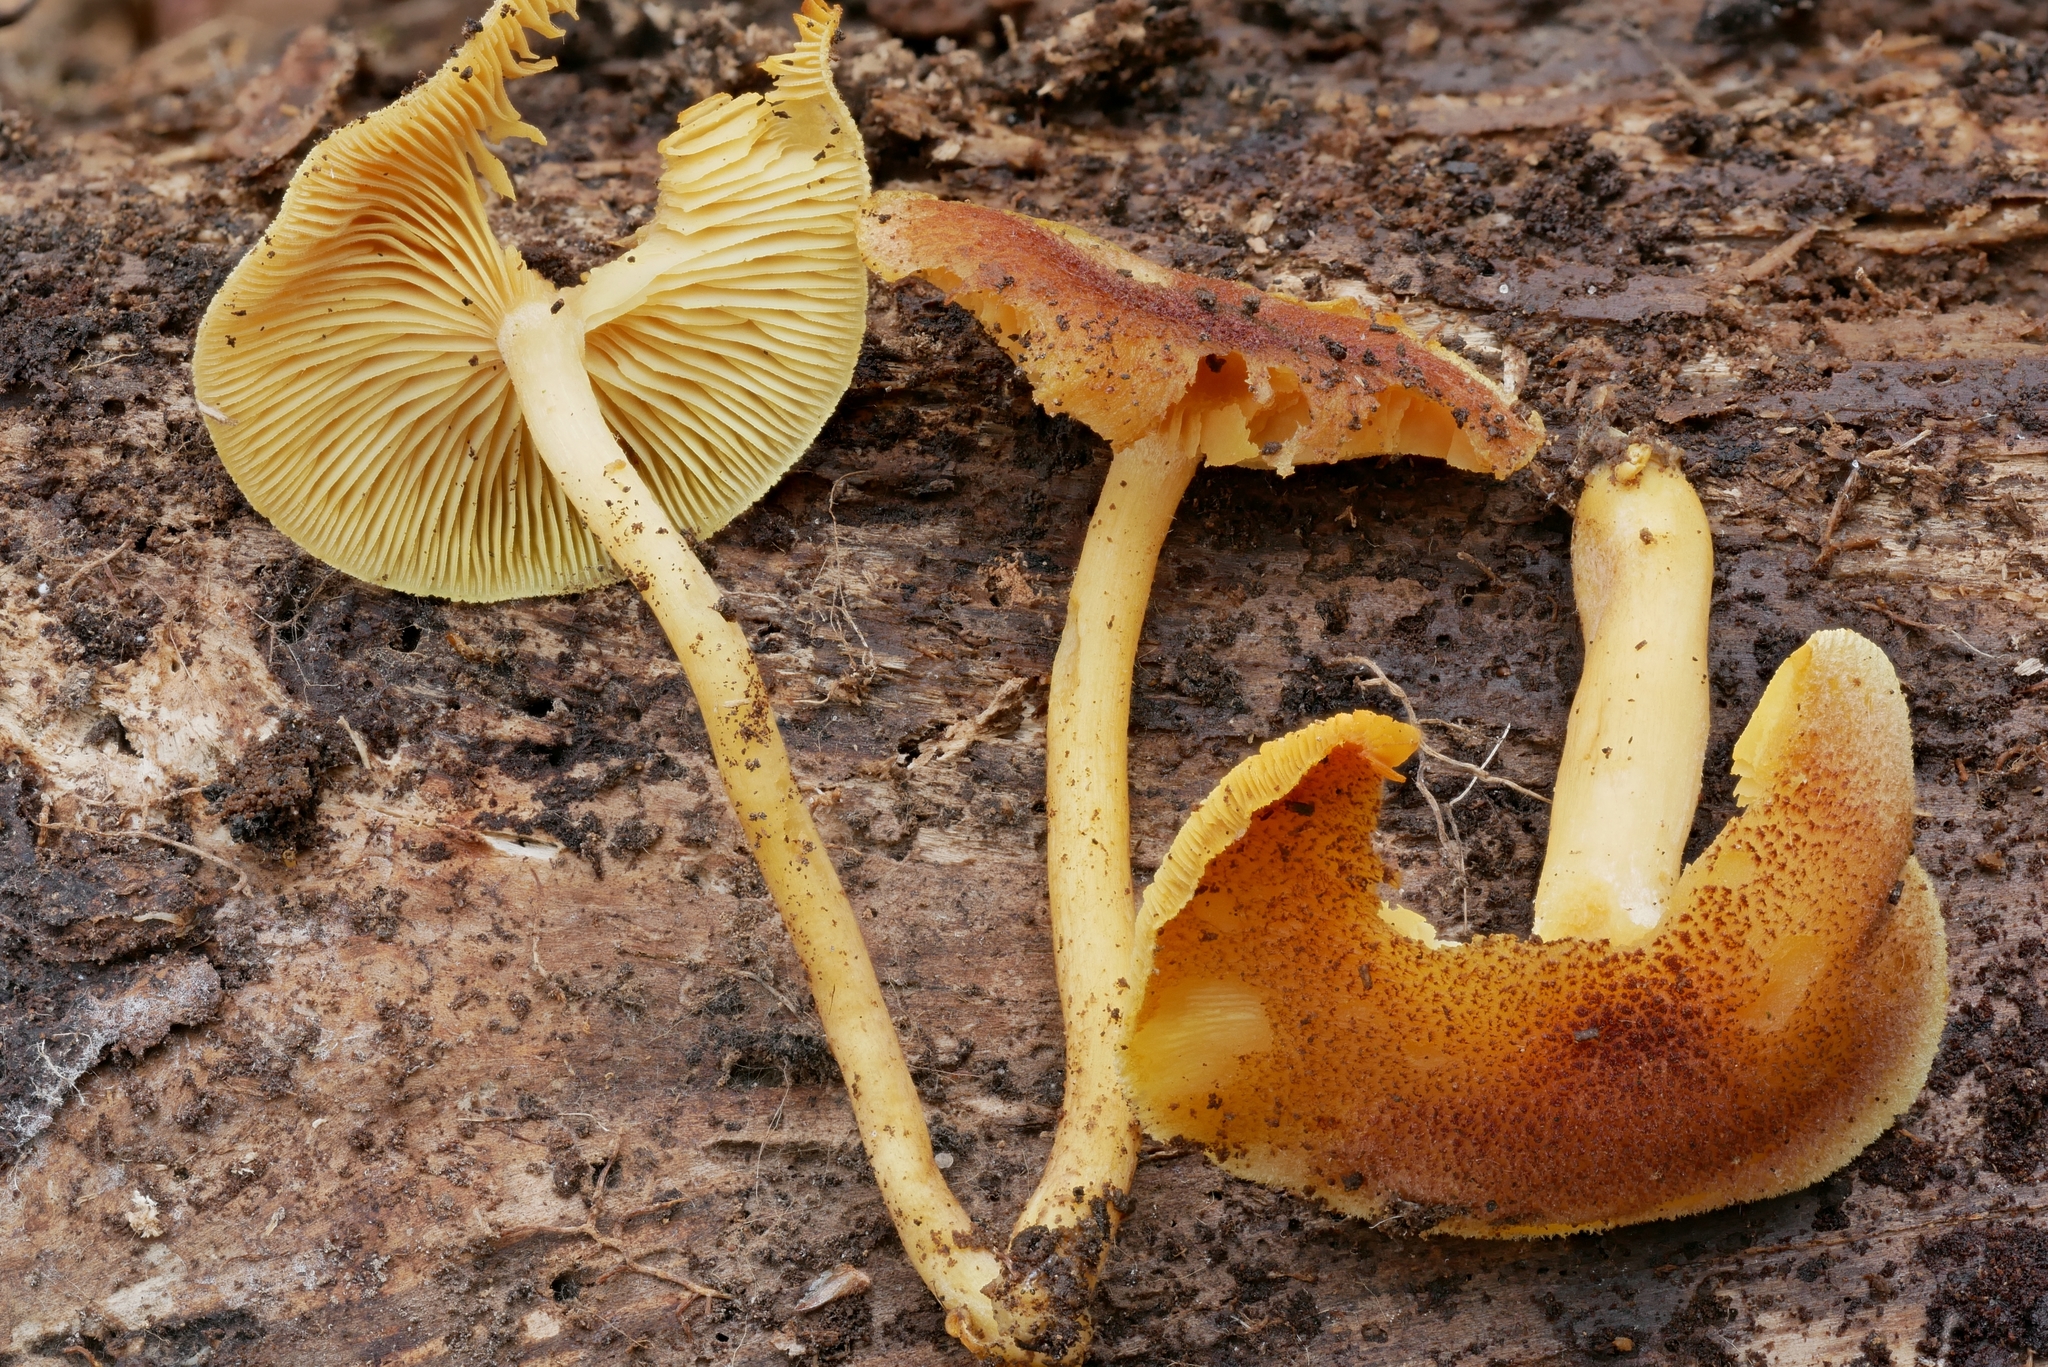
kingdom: Fungi
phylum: Basidiomycota
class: Agaricomycetes
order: Agaricales
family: Tricholomataceae
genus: Tricholomopsis
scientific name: Tricholomopsis flammula
